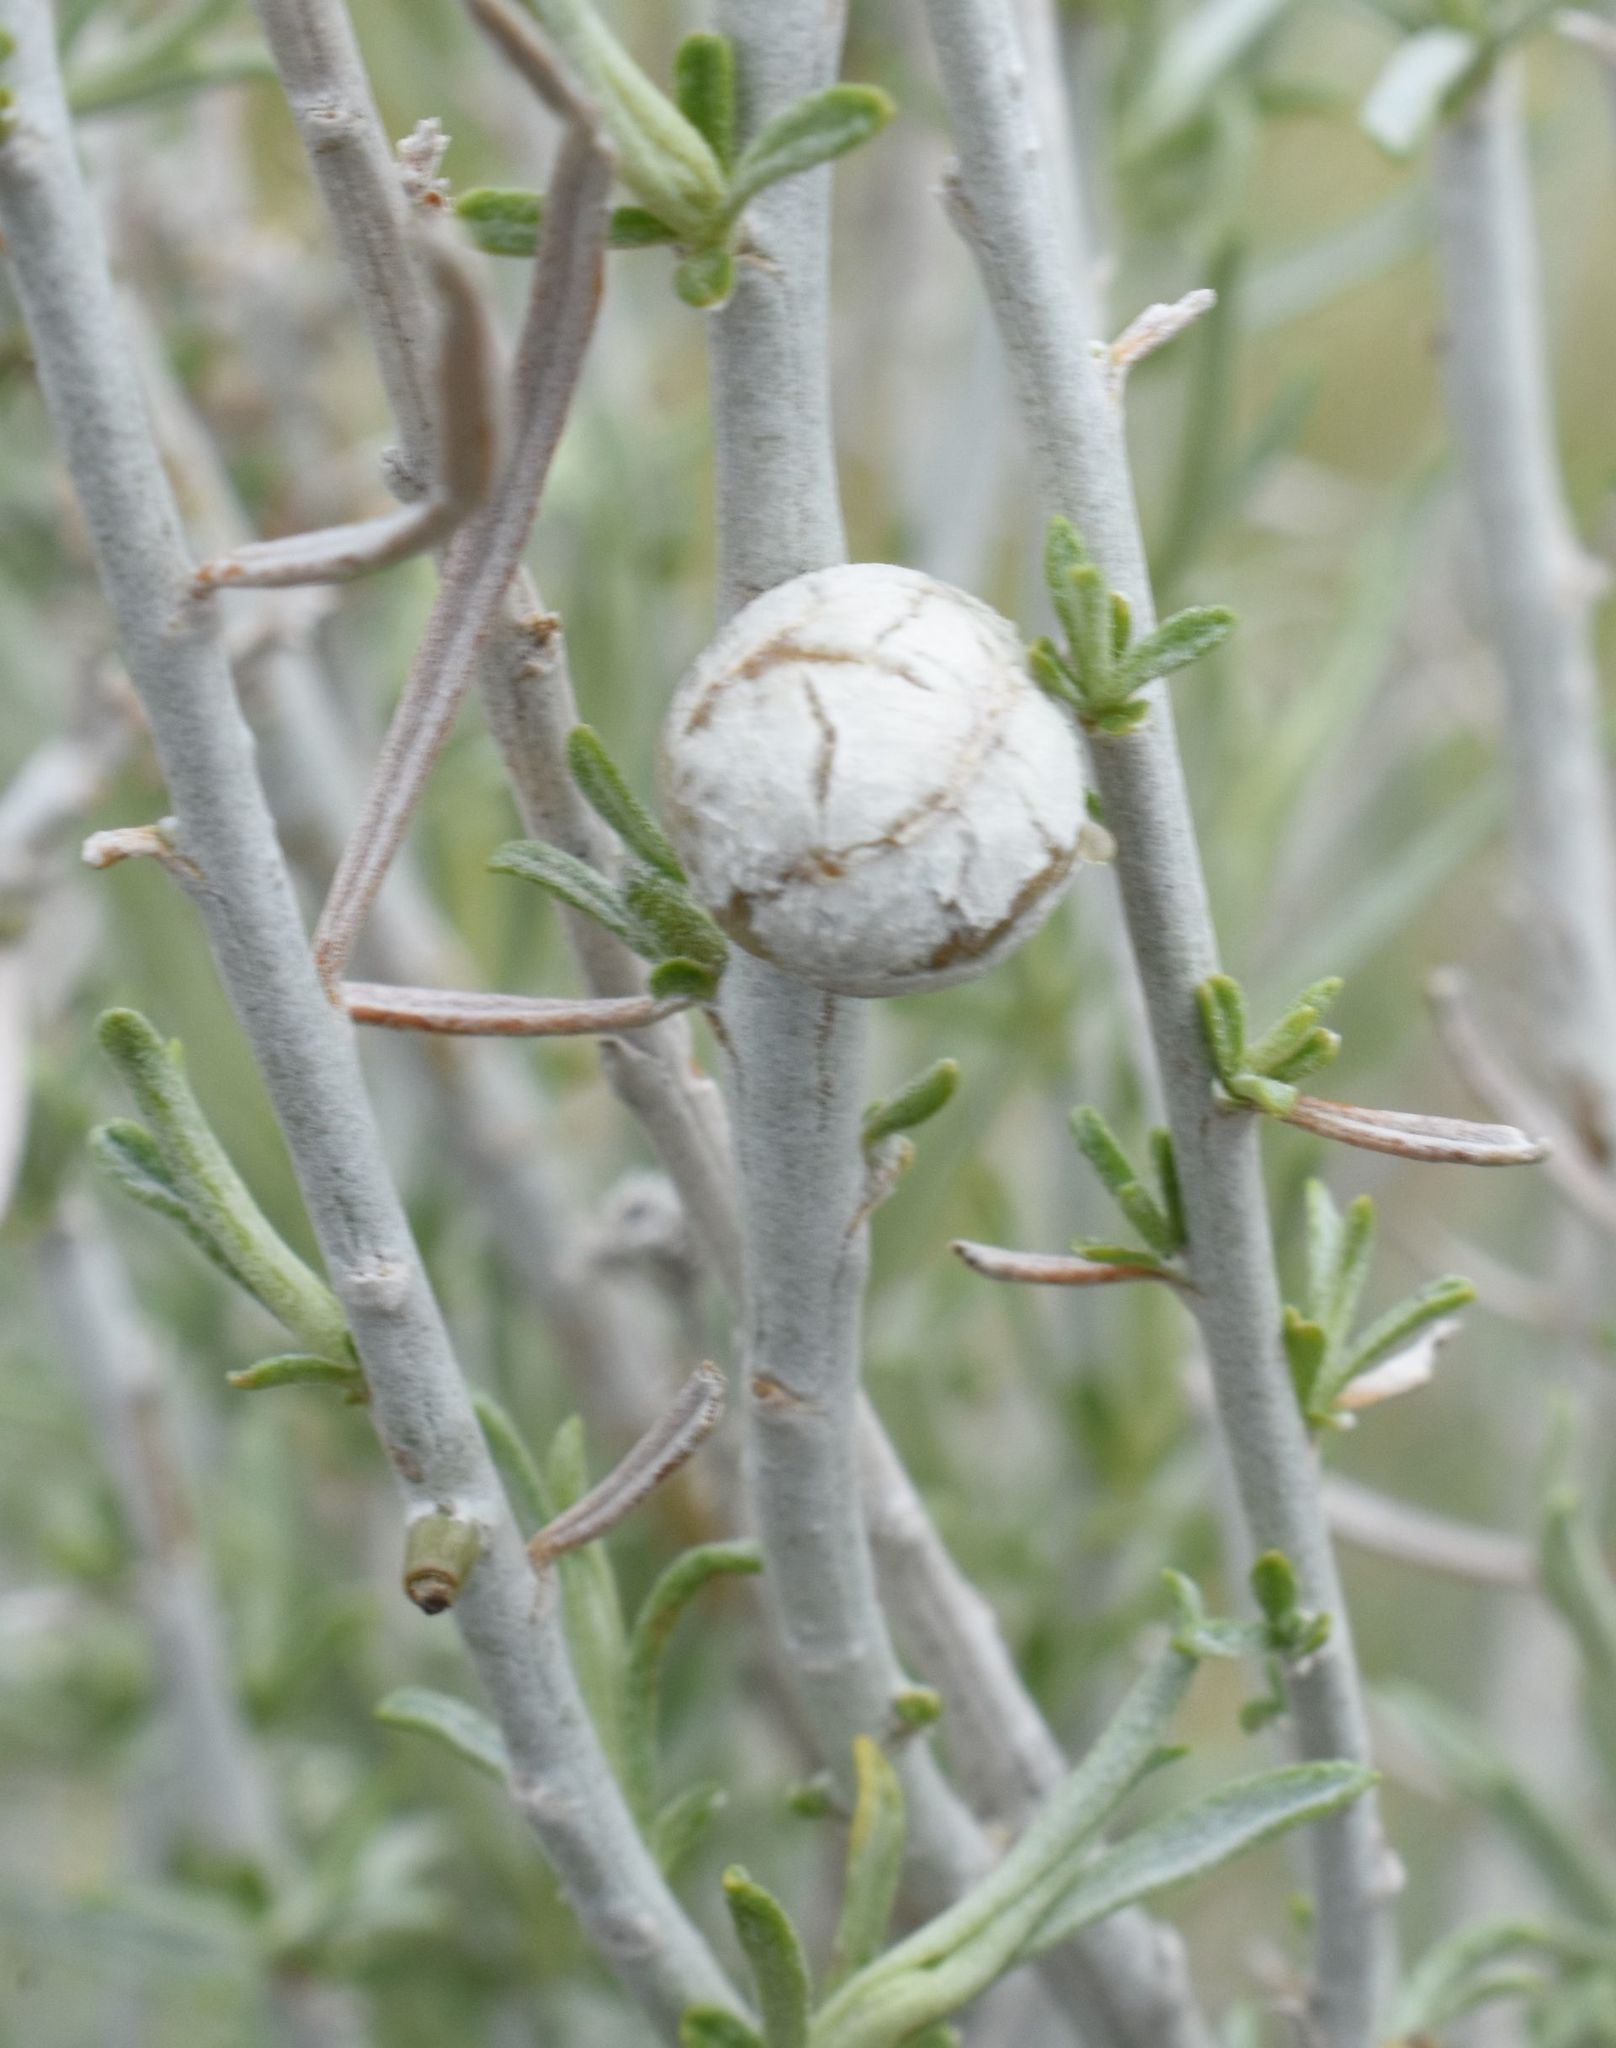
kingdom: Animalia
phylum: Arthropoda
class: Insecta
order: Diptera
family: Tephritidae
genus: Aciurina
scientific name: Aciurina trixa
